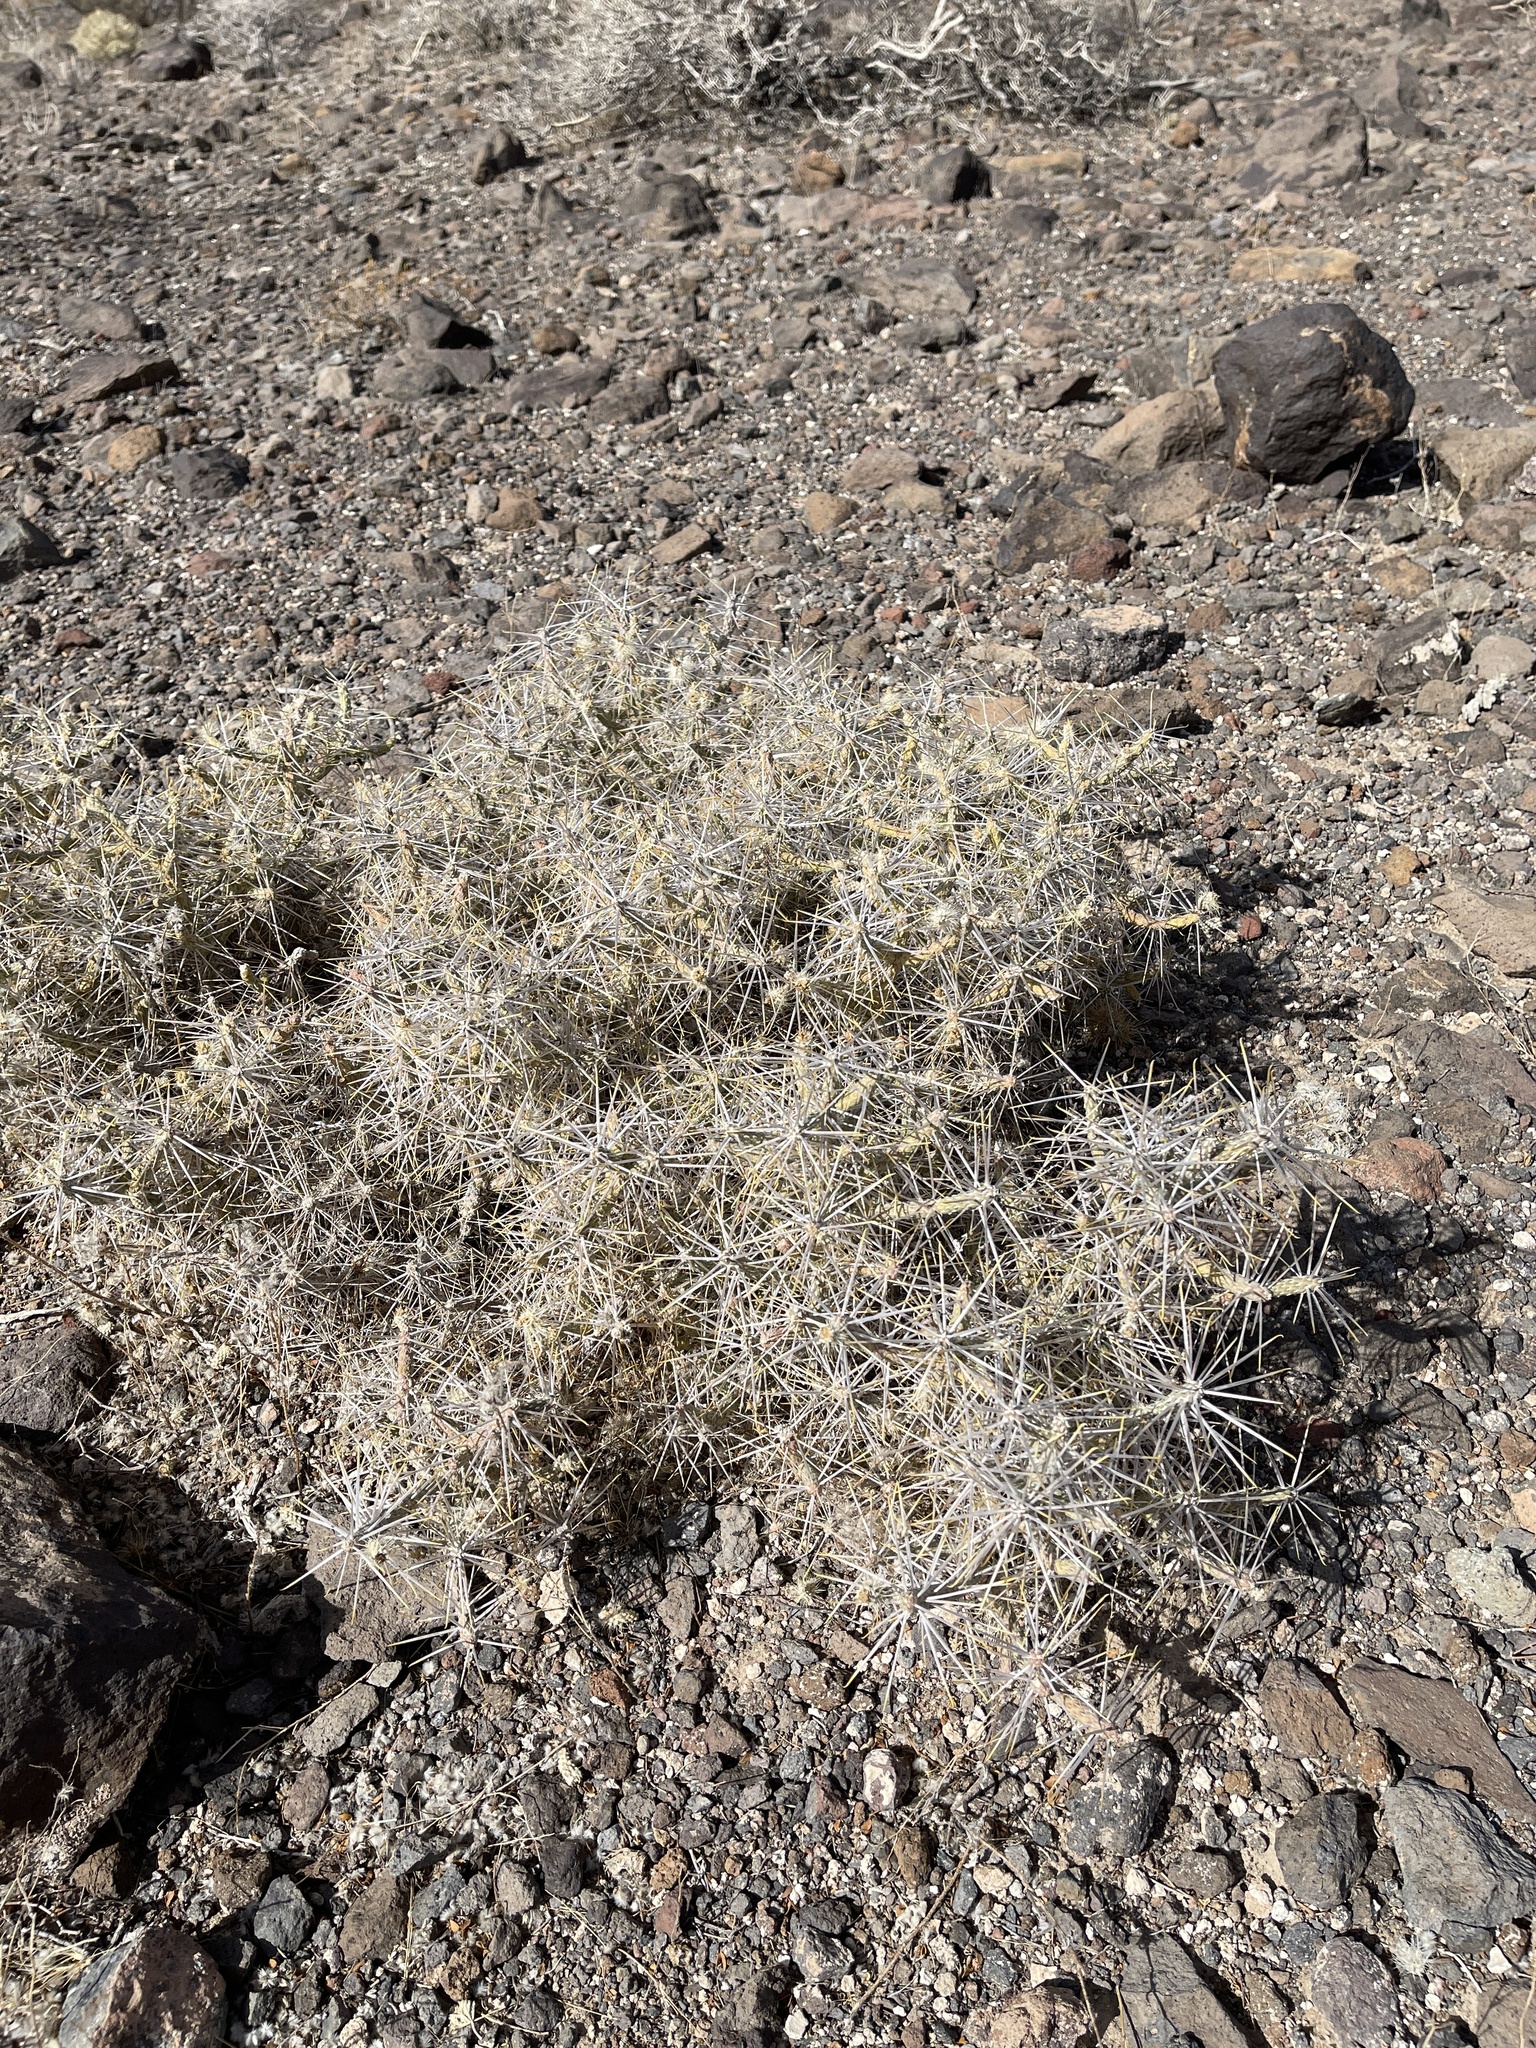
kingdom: Plantae
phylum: Tracheophyta
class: Magnoliopsida
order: Caryophyllales
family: Cactaceae
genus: Cylindropuntia
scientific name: Cylindropuntia ramosissima
